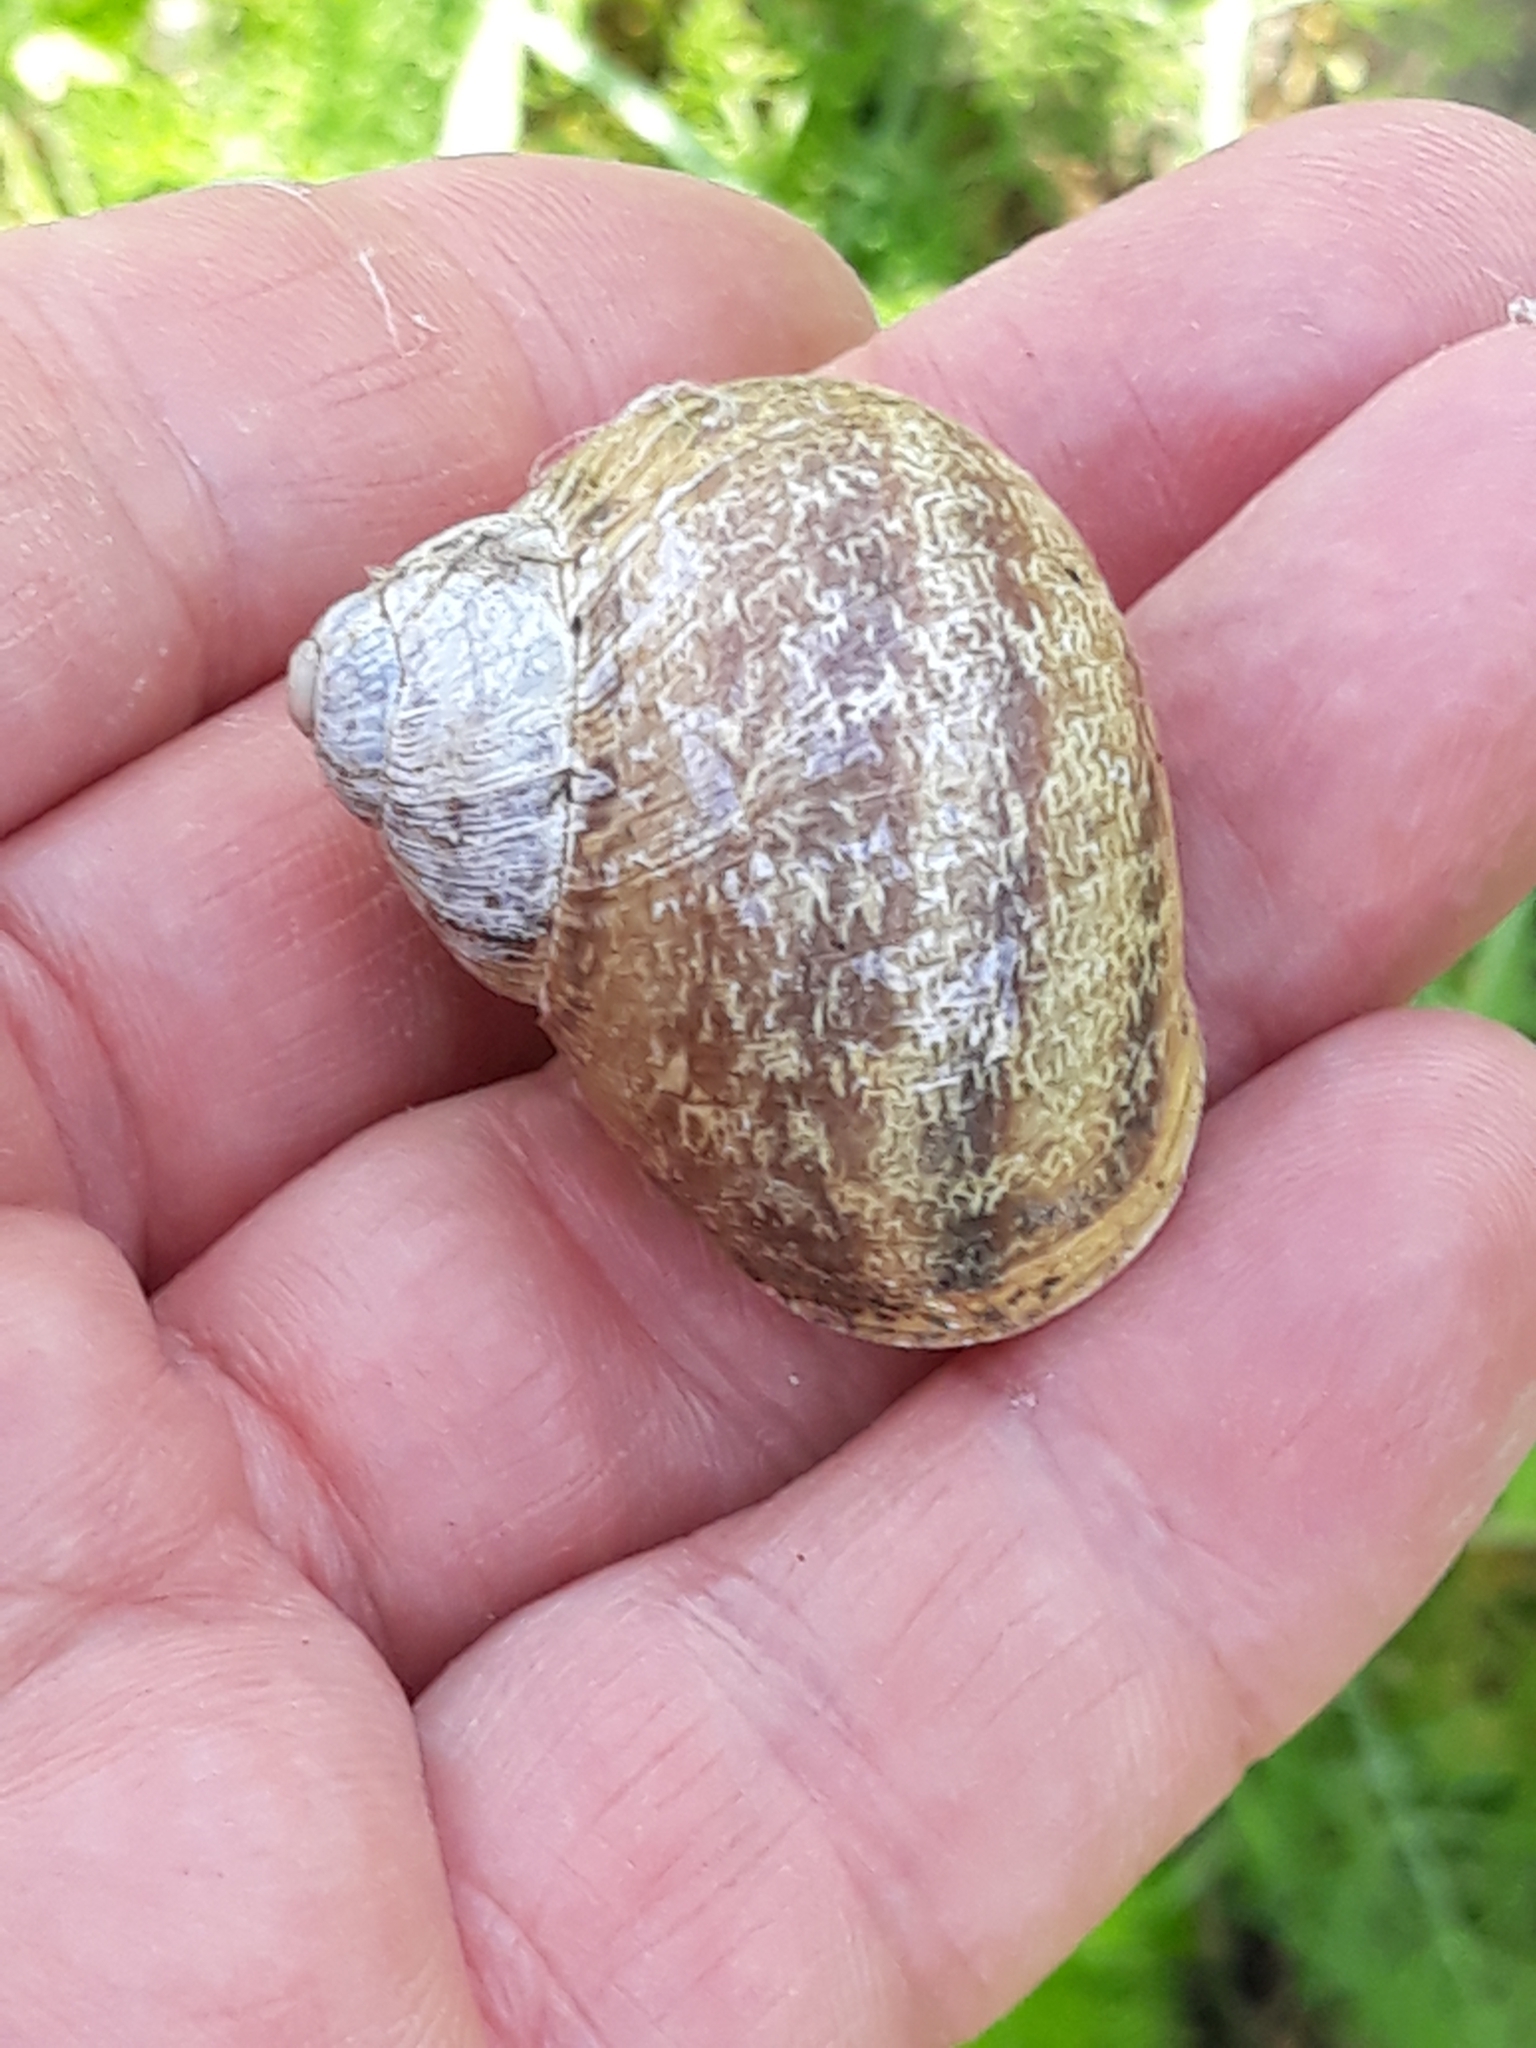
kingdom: Animalia
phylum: Mollusca
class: Gastropoda
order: Stylommatophora
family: Helicidae
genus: Cornu
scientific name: Cornu aspersum
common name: Brown garden snail
